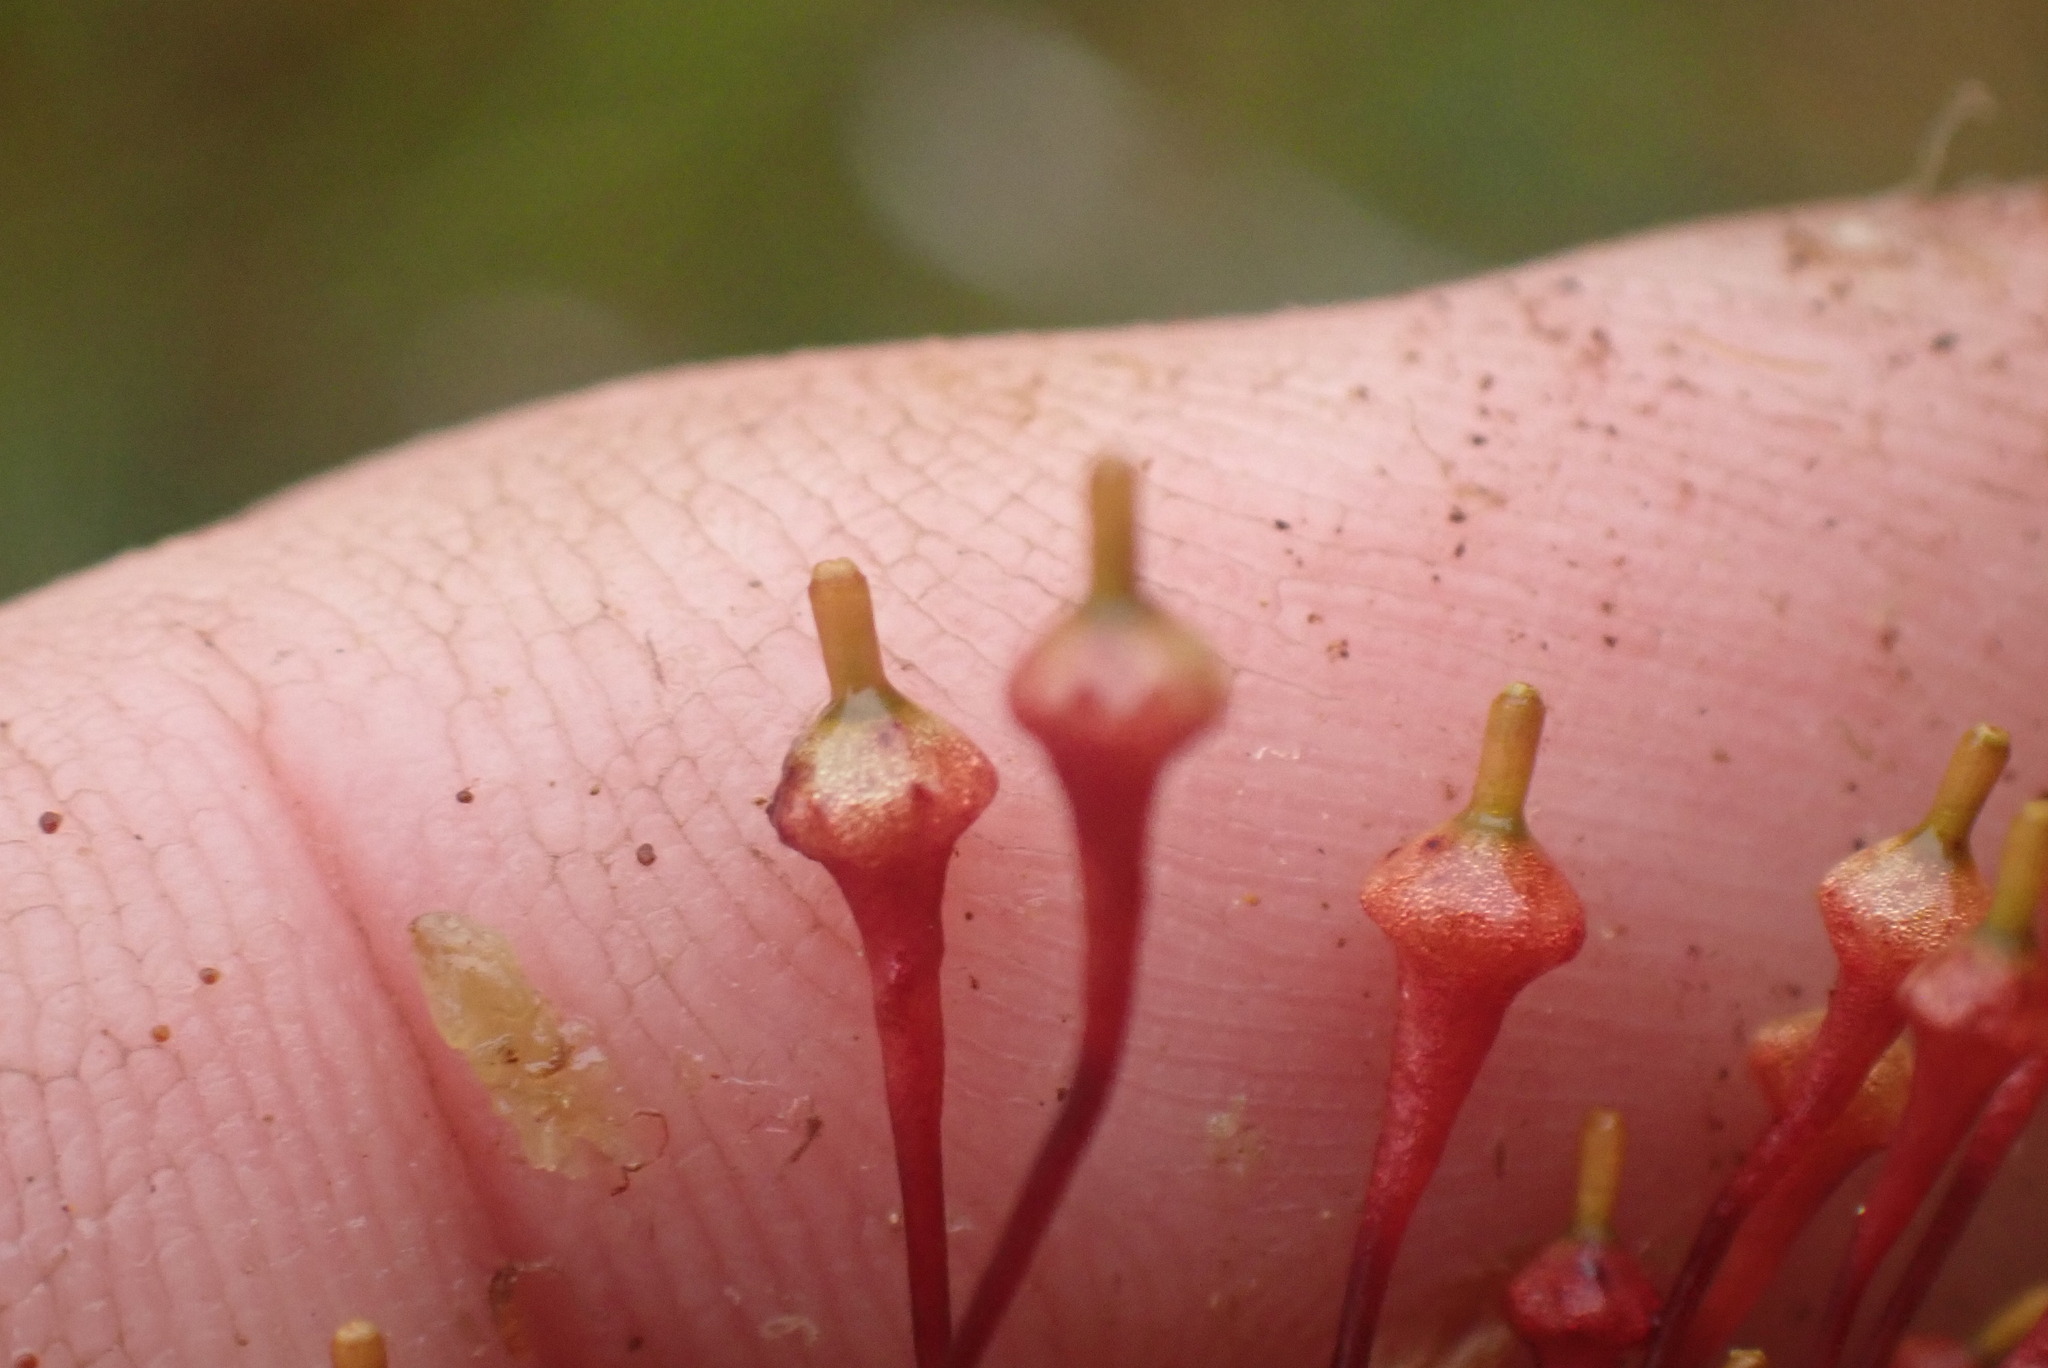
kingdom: Plantae
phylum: Bryophyta
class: Bryopsida
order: Splachnales
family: Splachnaceae
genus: Splachnum
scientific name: Splachnum ampullaceum
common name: Cruet dung moss
